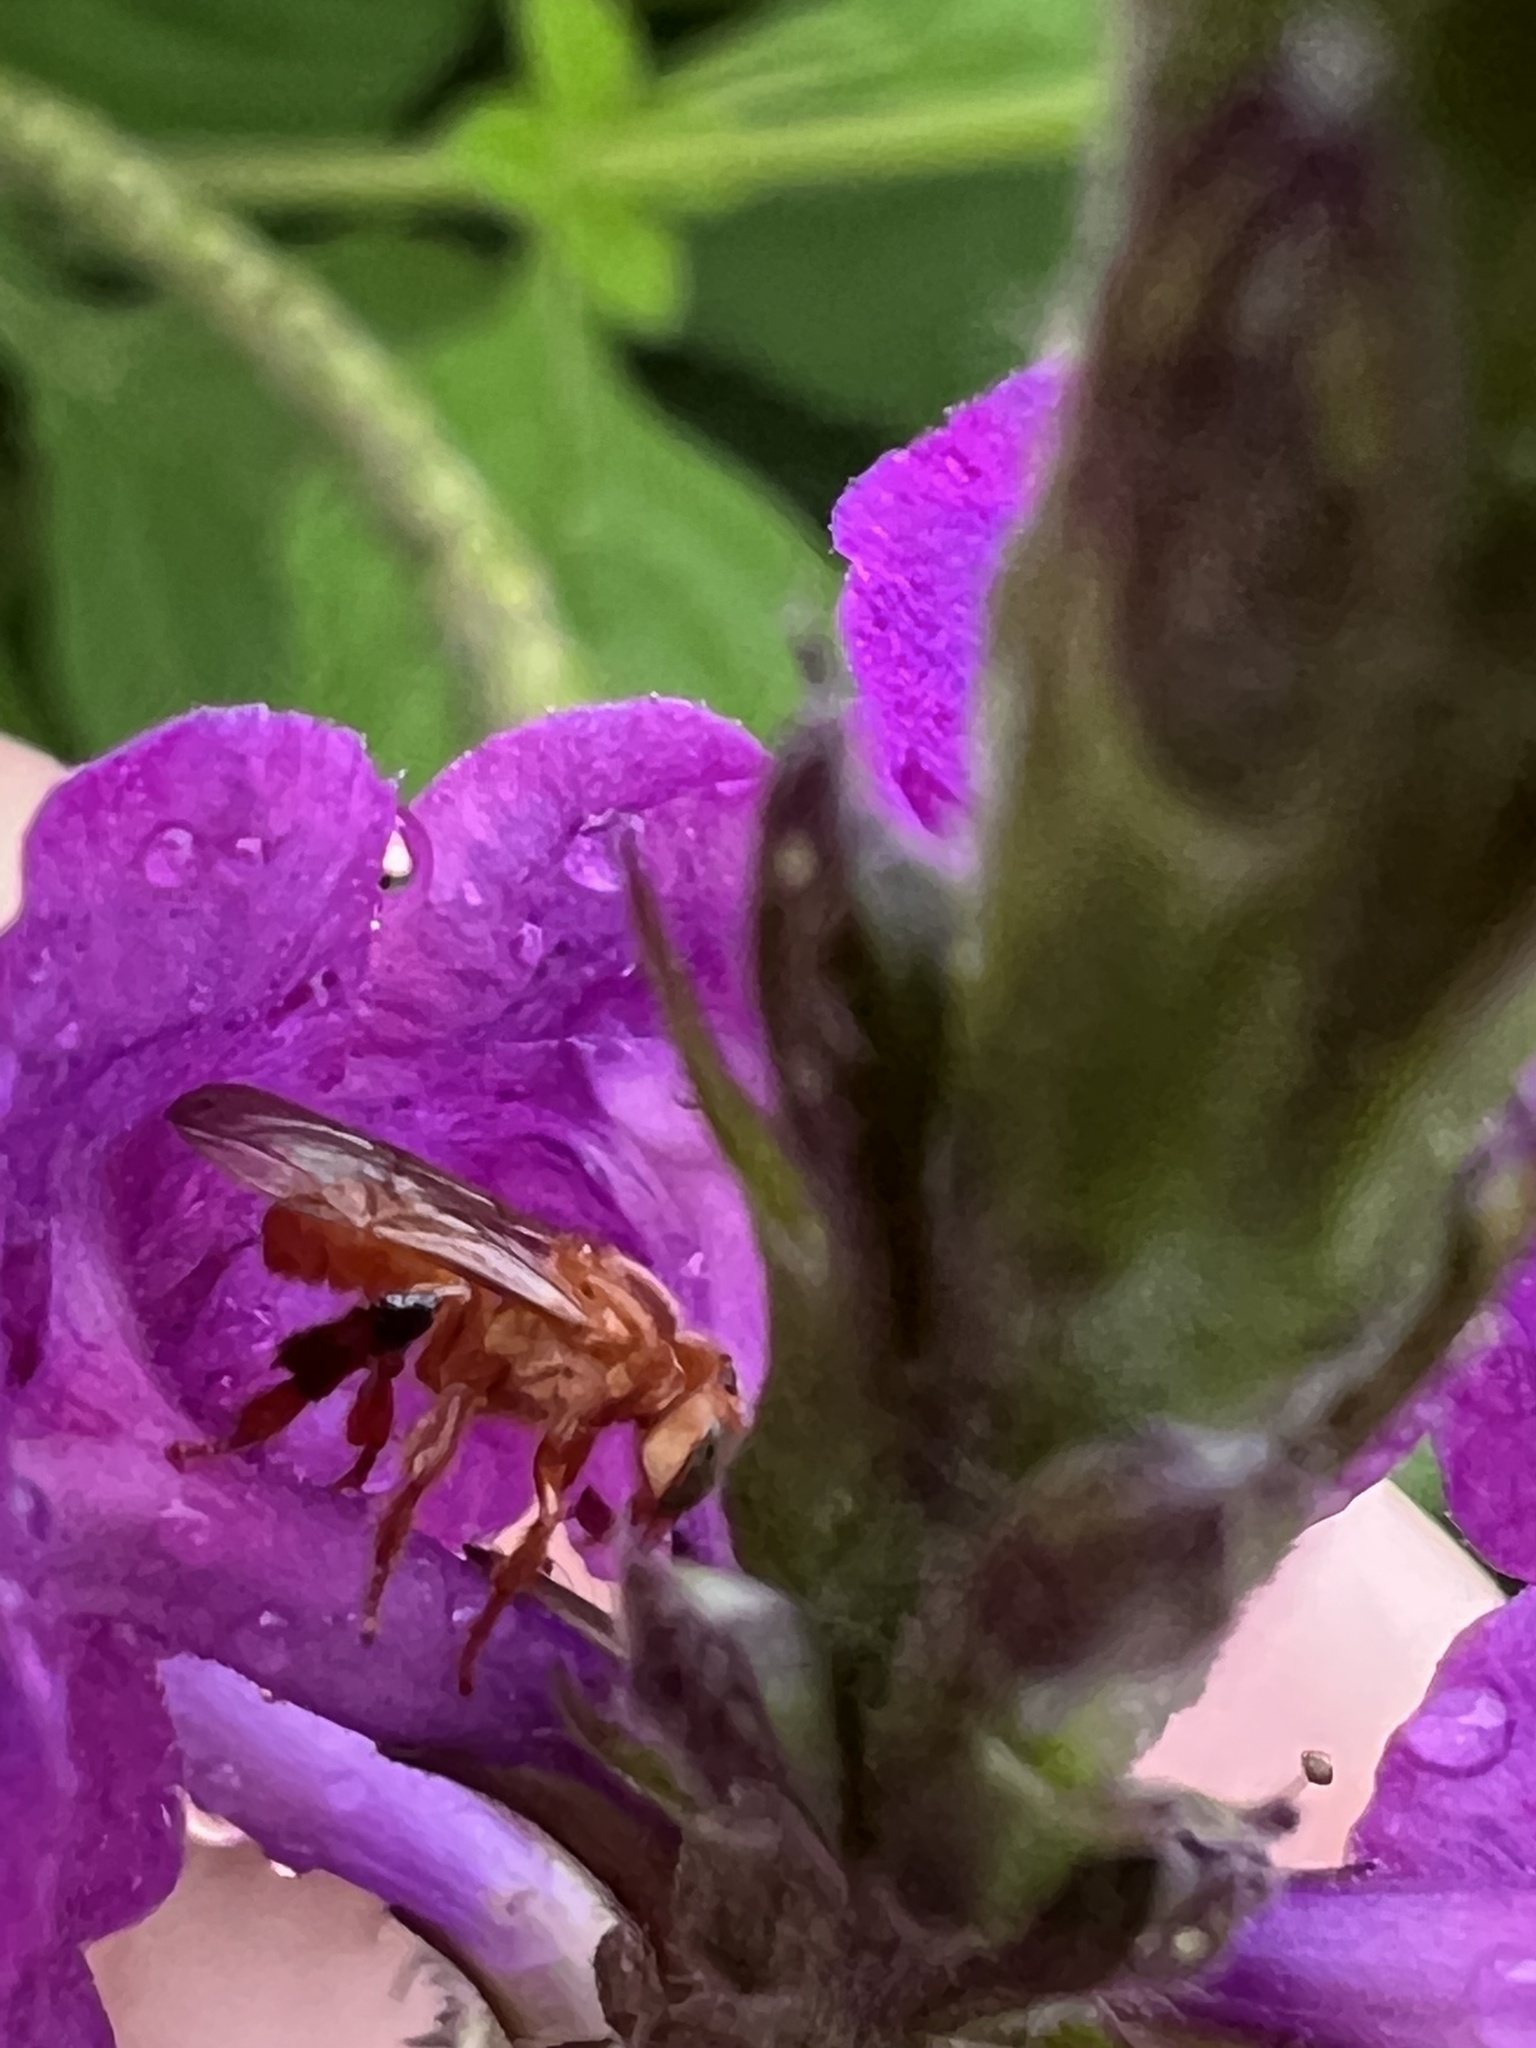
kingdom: Animalia
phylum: Arthropoda
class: Insecta
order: Hymenoptera
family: Apidae
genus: Trigona
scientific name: Trigona muzoensis
